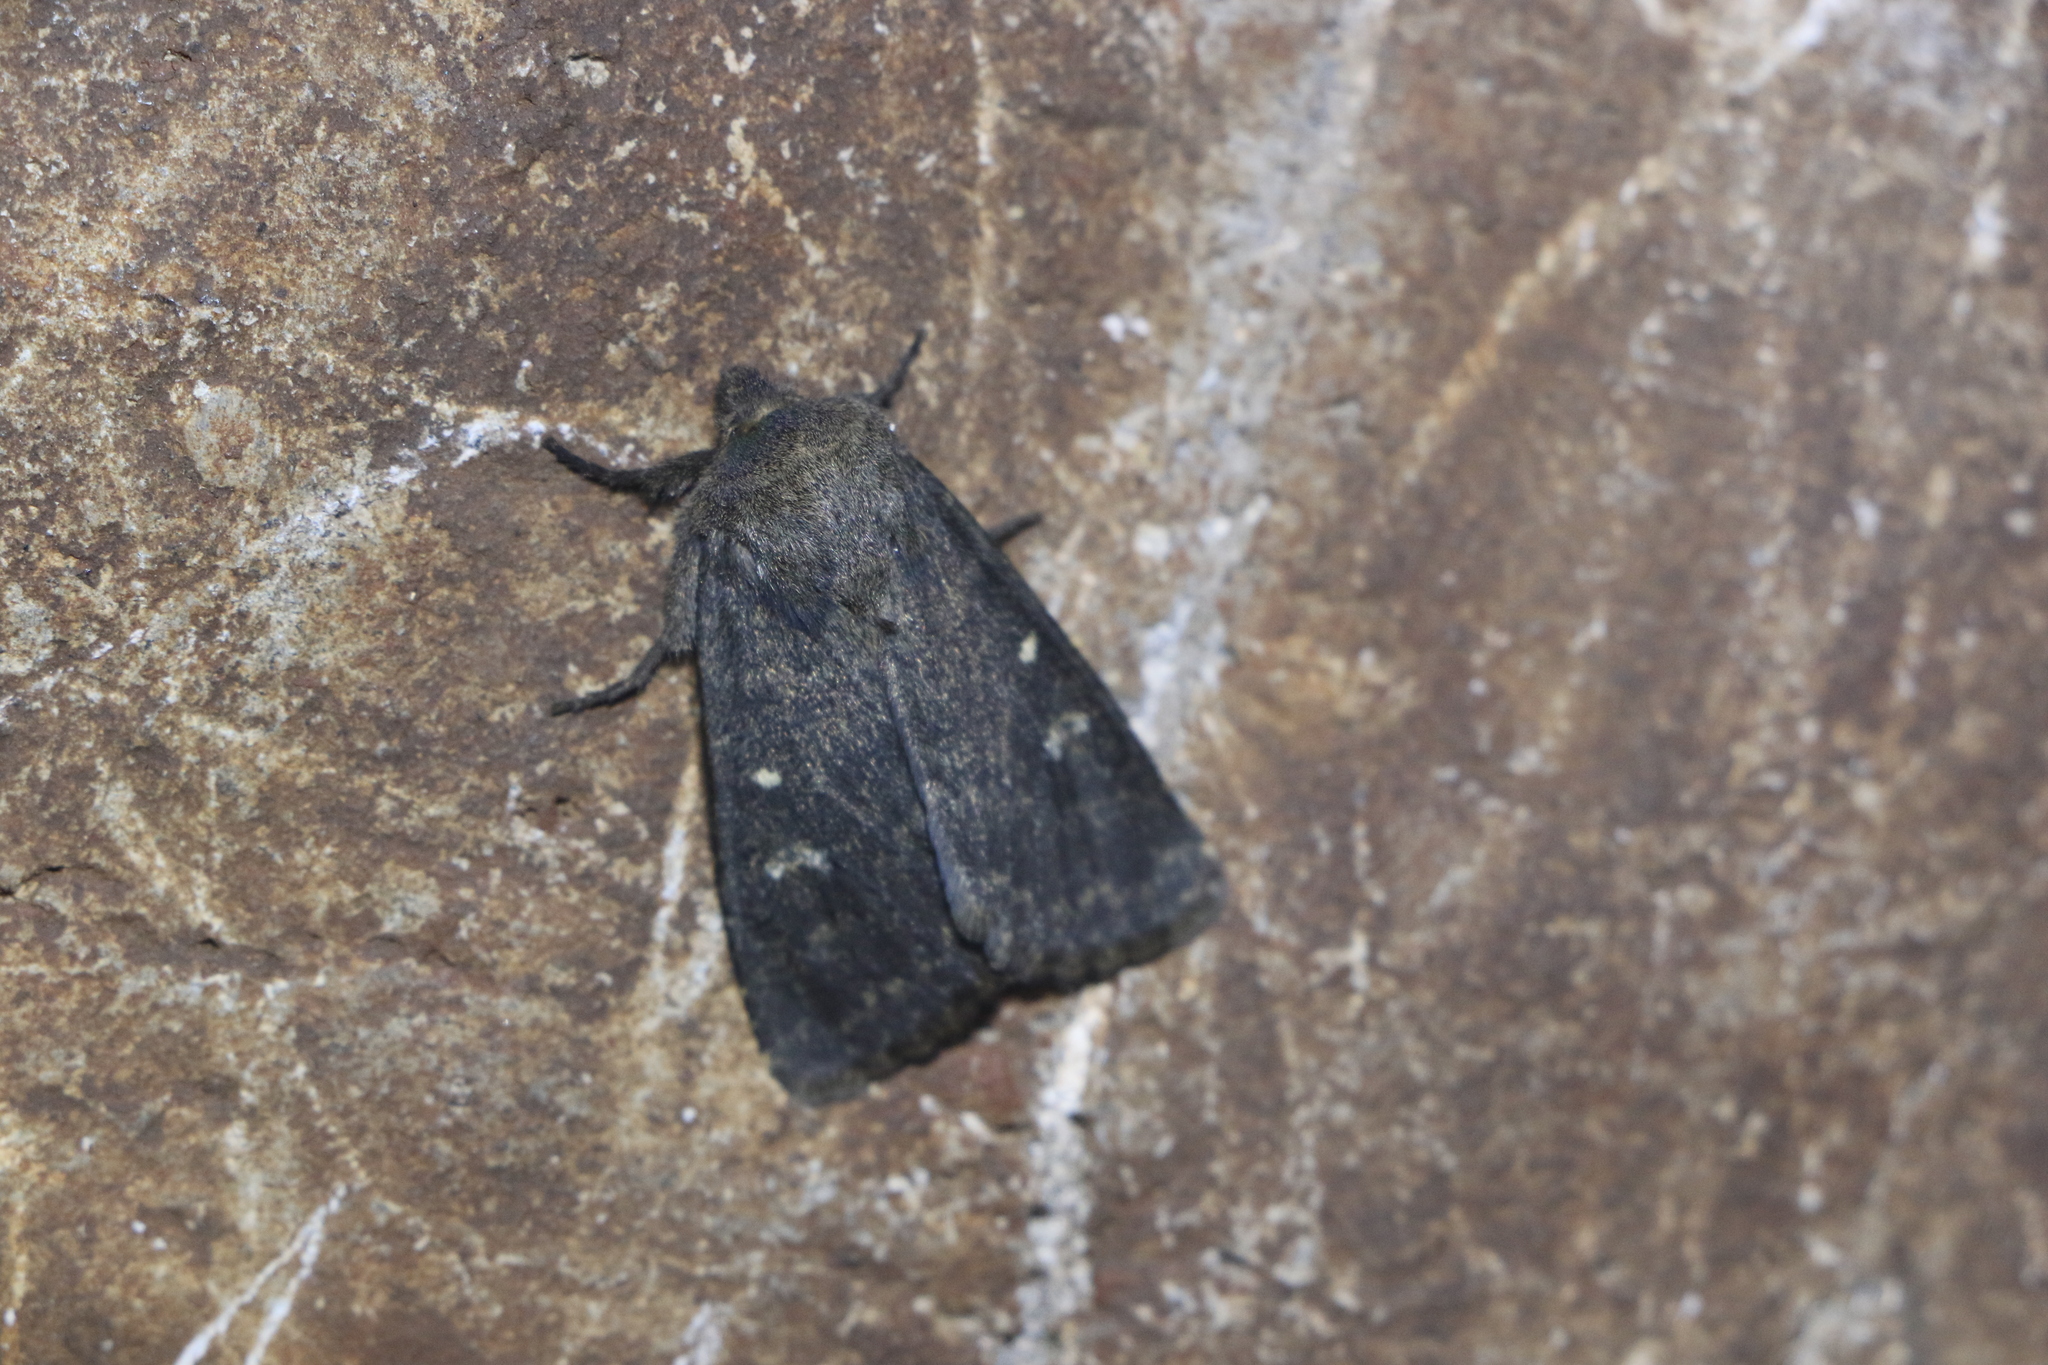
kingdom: Animalia
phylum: Arthropoda
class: Insecta
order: Lepidoptera
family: Noctuidae
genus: Dasypolia
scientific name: Dasypolia templi
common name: Brindled ochre
